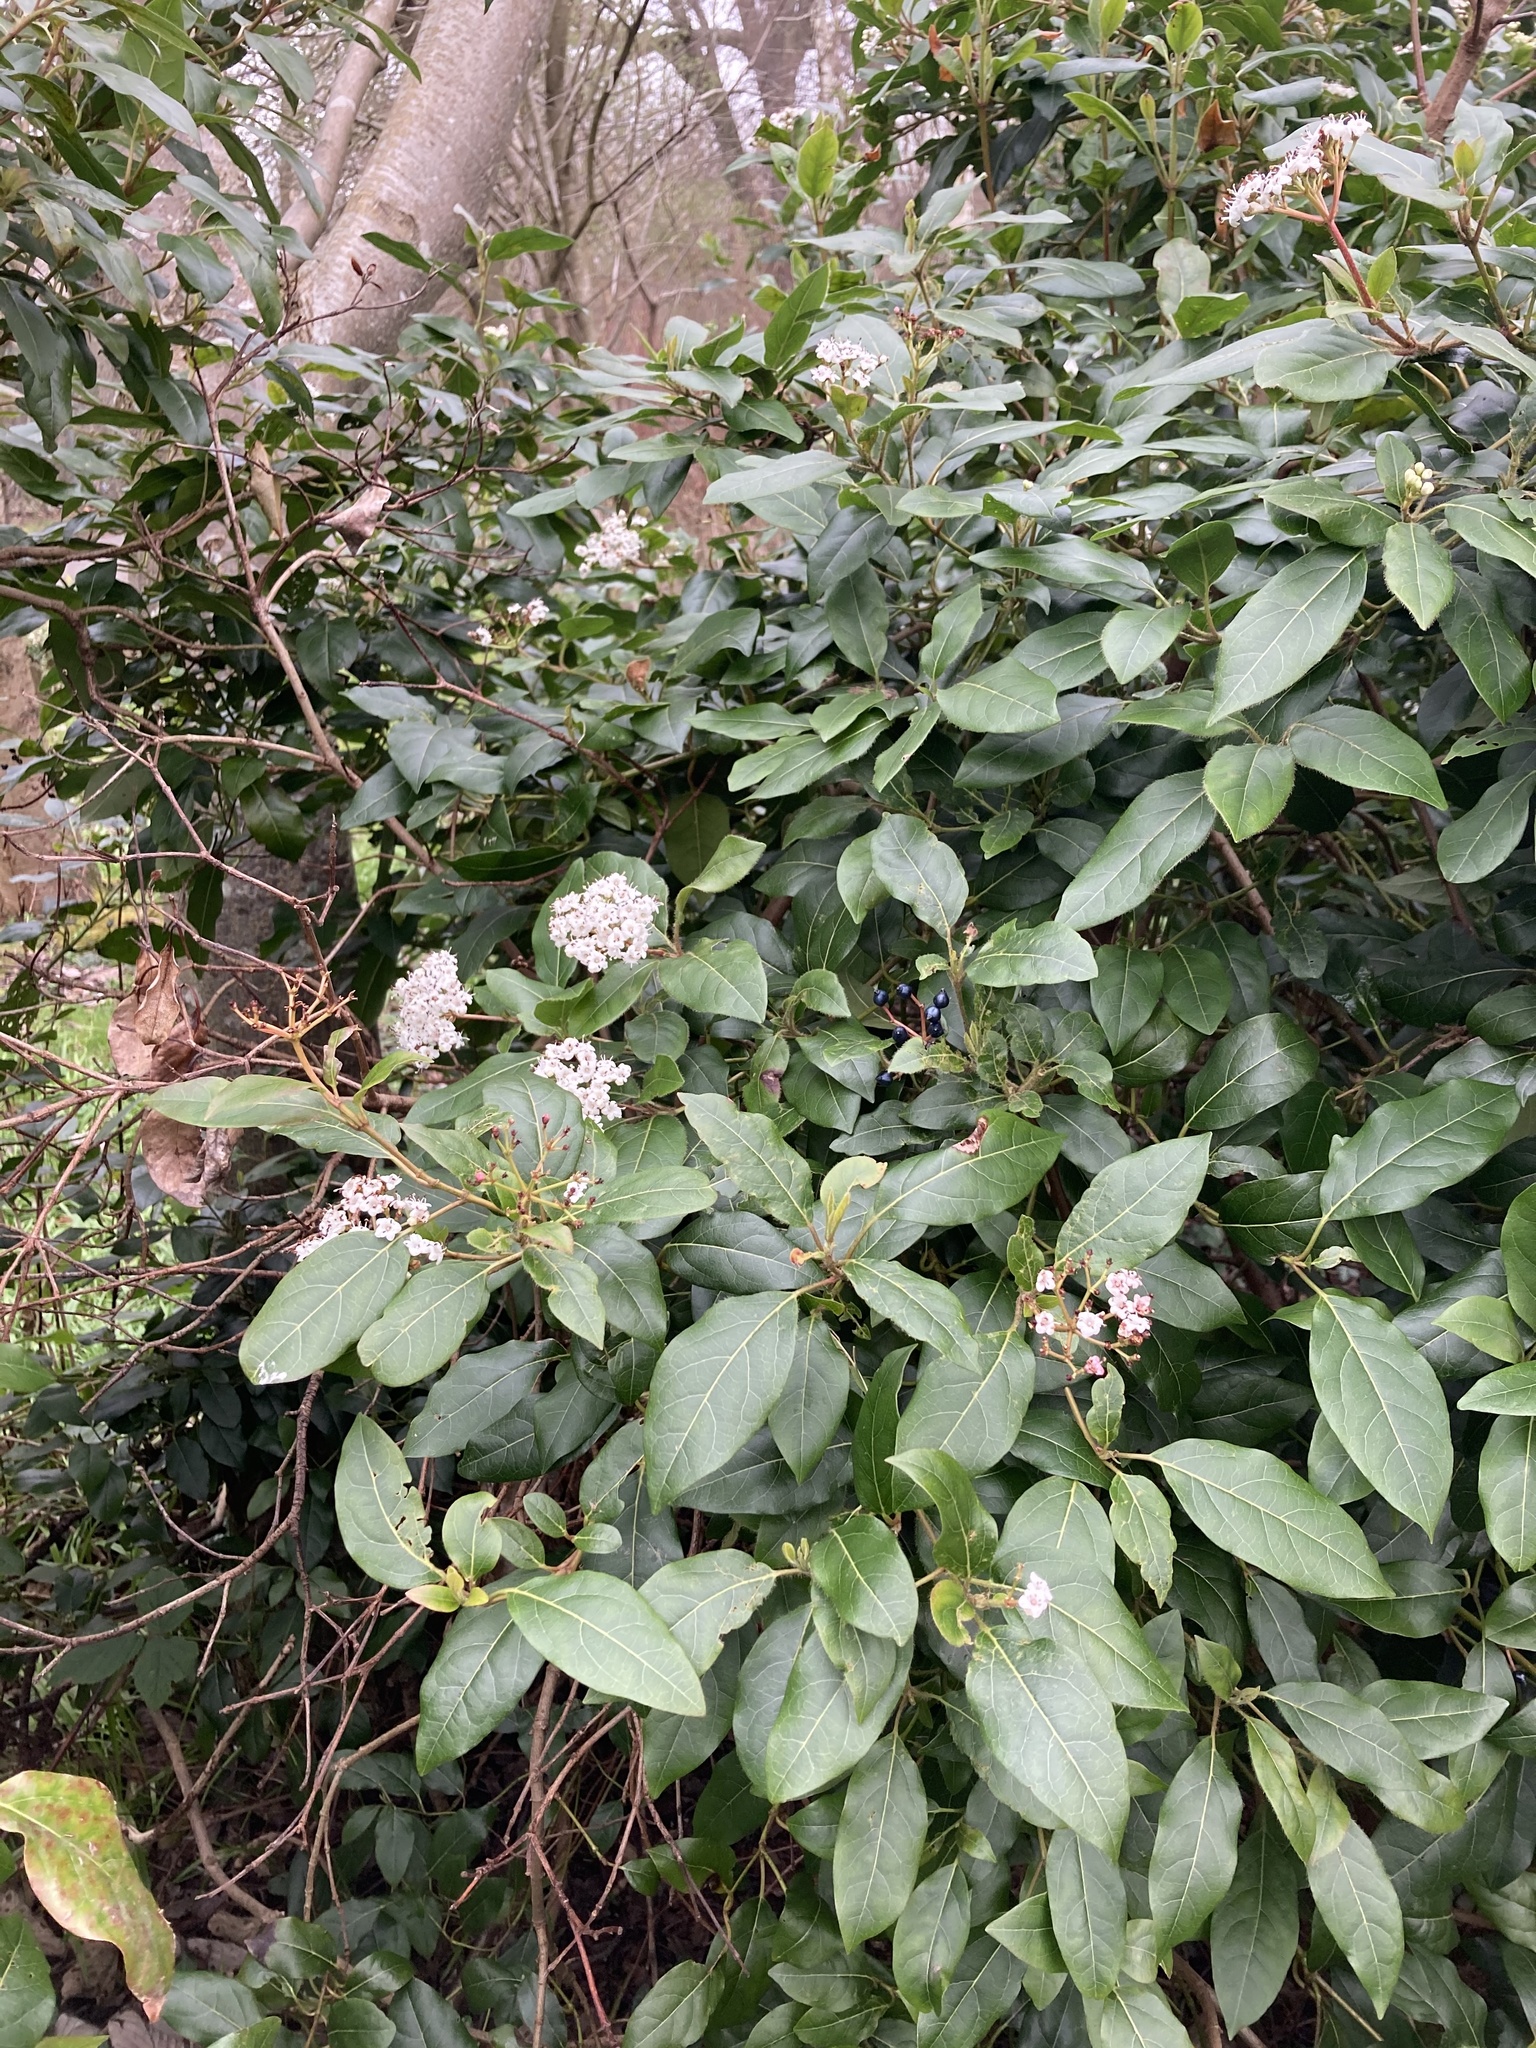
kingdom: Plantae
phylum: Tracheophyta
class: Magnoliopsida
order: Dipsacales
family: Viburnaceae
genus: Viburnum
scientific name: Viburnum tinus
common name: Laurustinus
